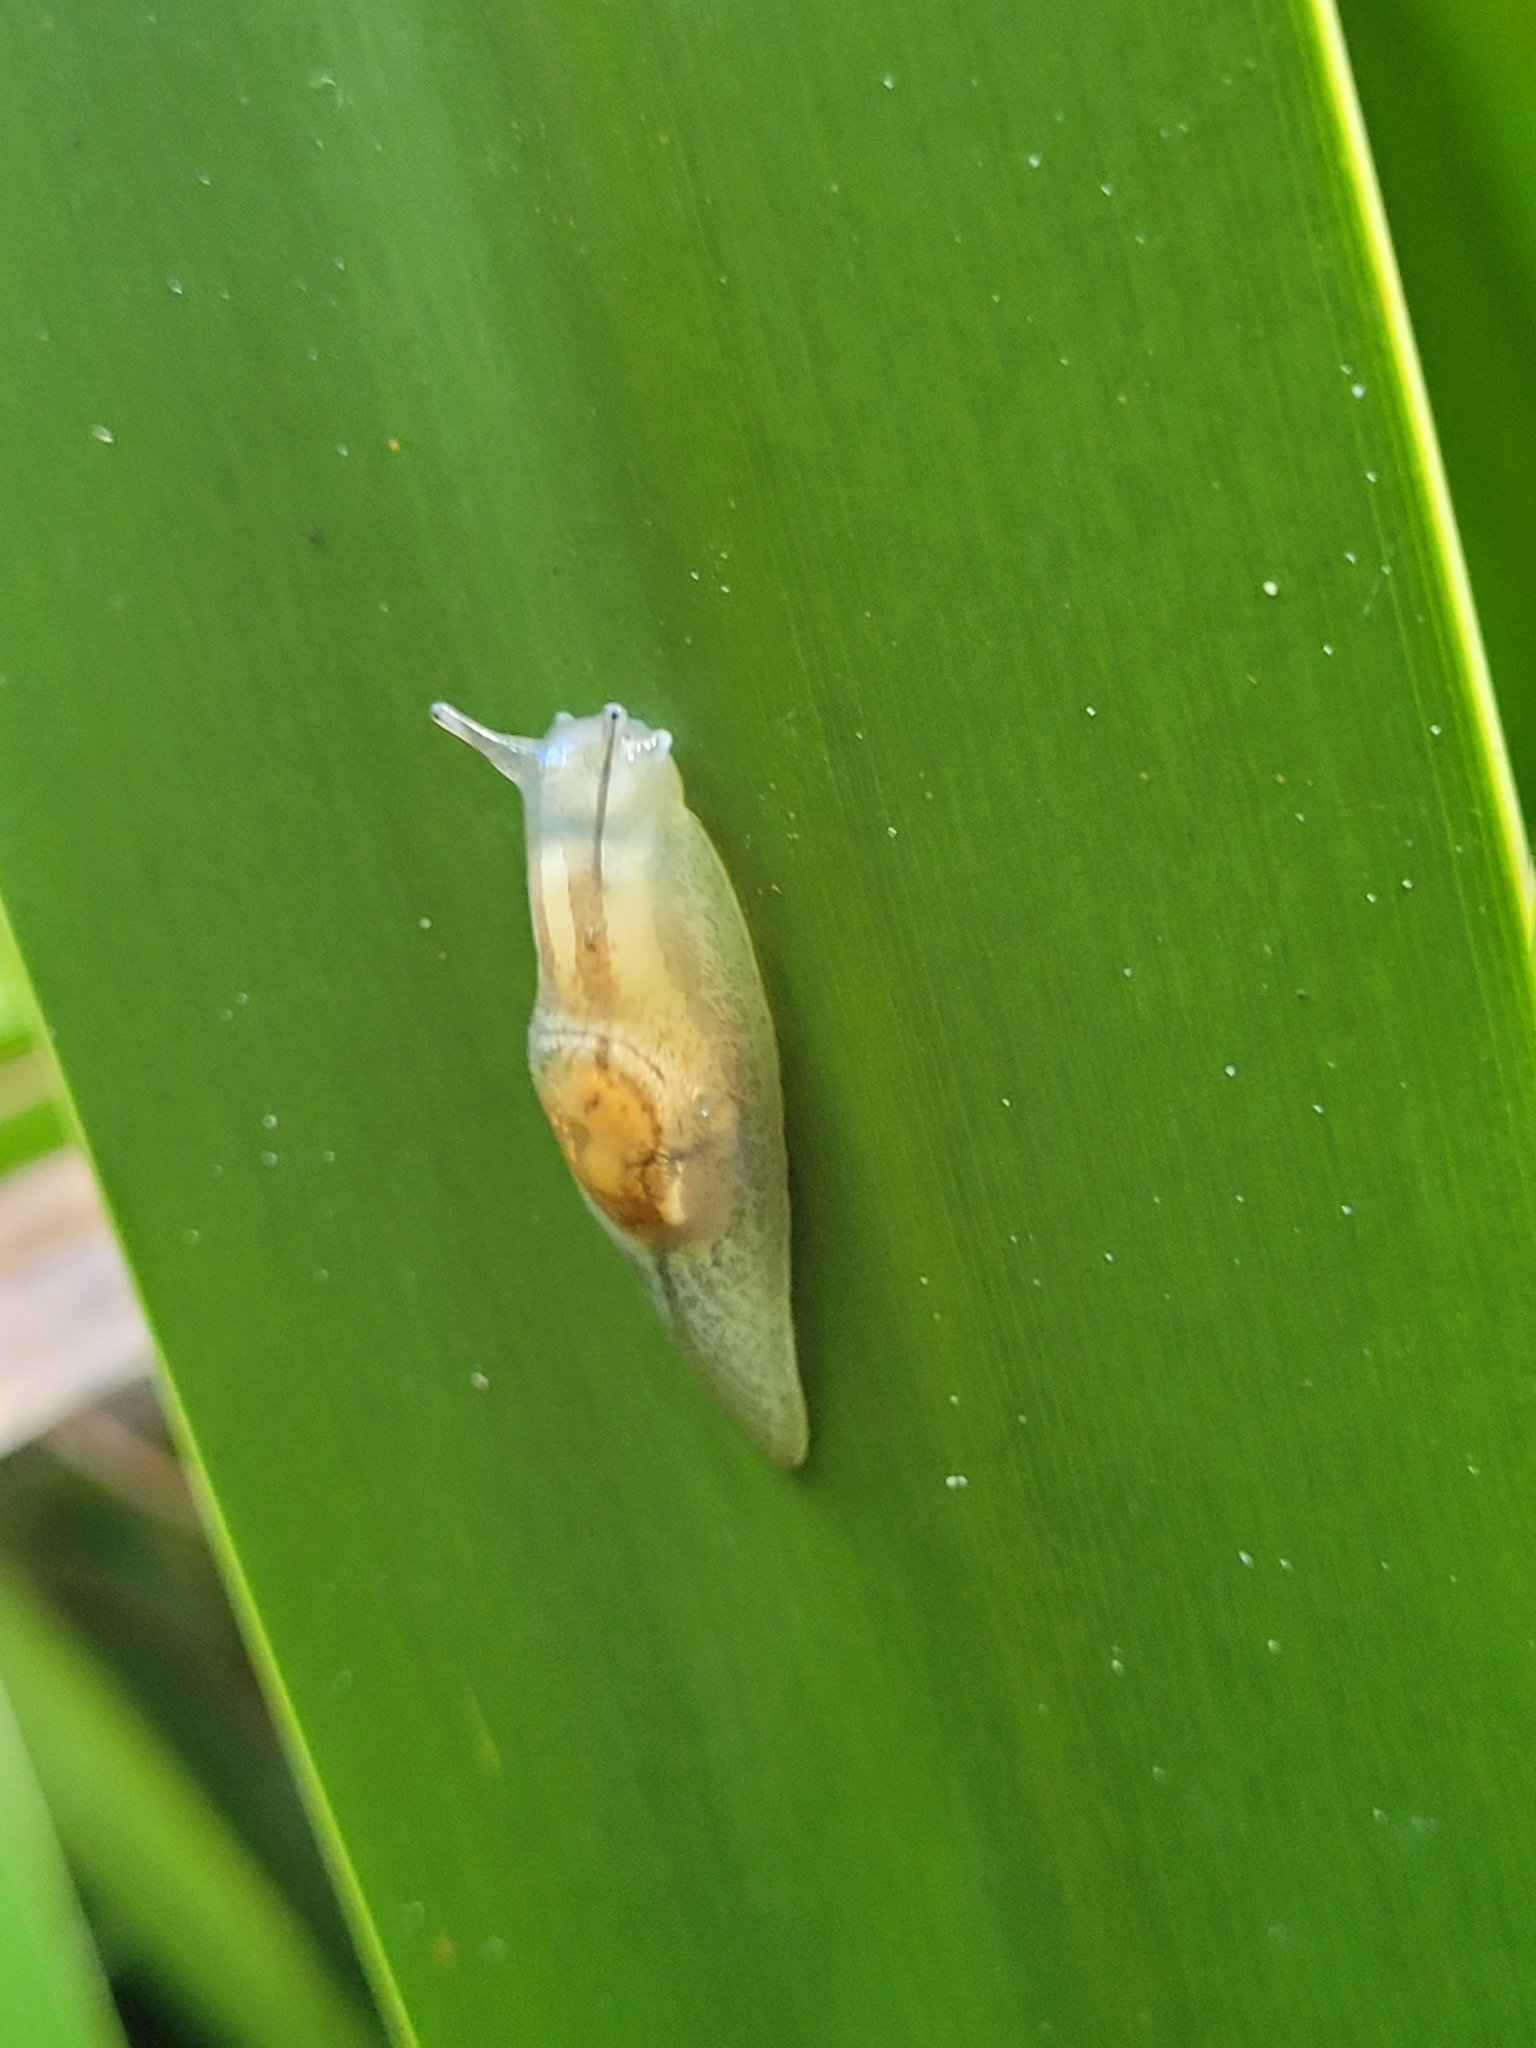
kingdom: Animalia
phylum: Mollusca
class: Gastropoda
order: Stylommatophora
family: Succineidae
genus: Hyalimax
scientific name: Hyalimax maillardi
